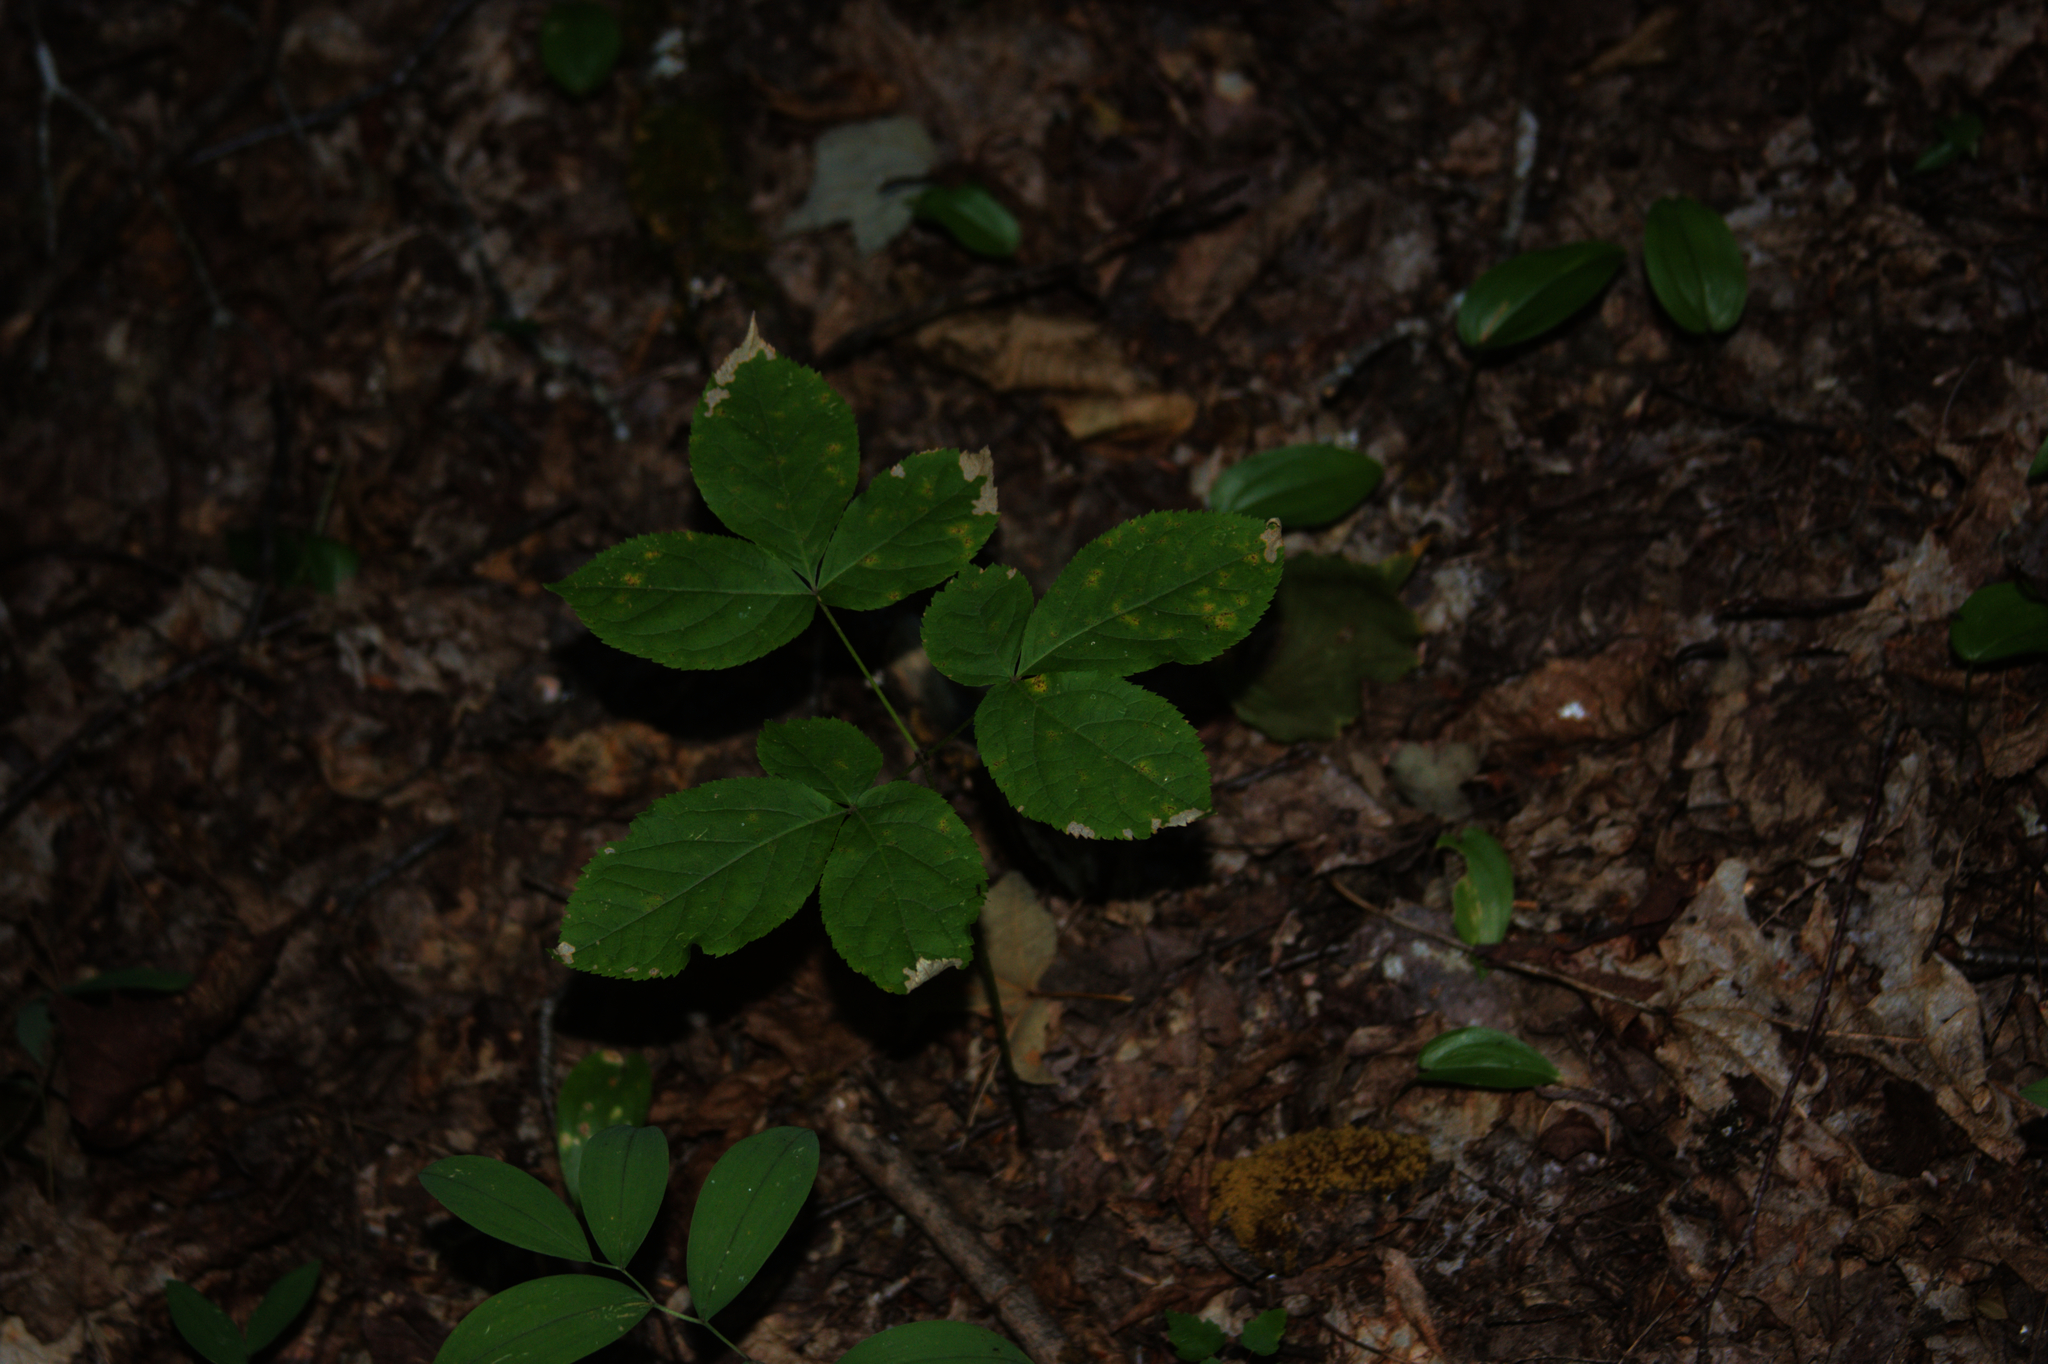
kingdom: Plantae
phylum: Tracheophyta
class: Magnoliopsida
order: Apiales
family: Araliaceae
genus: Aralia
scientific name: Aralia nudicaulis
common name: Wild sarsaparilla
